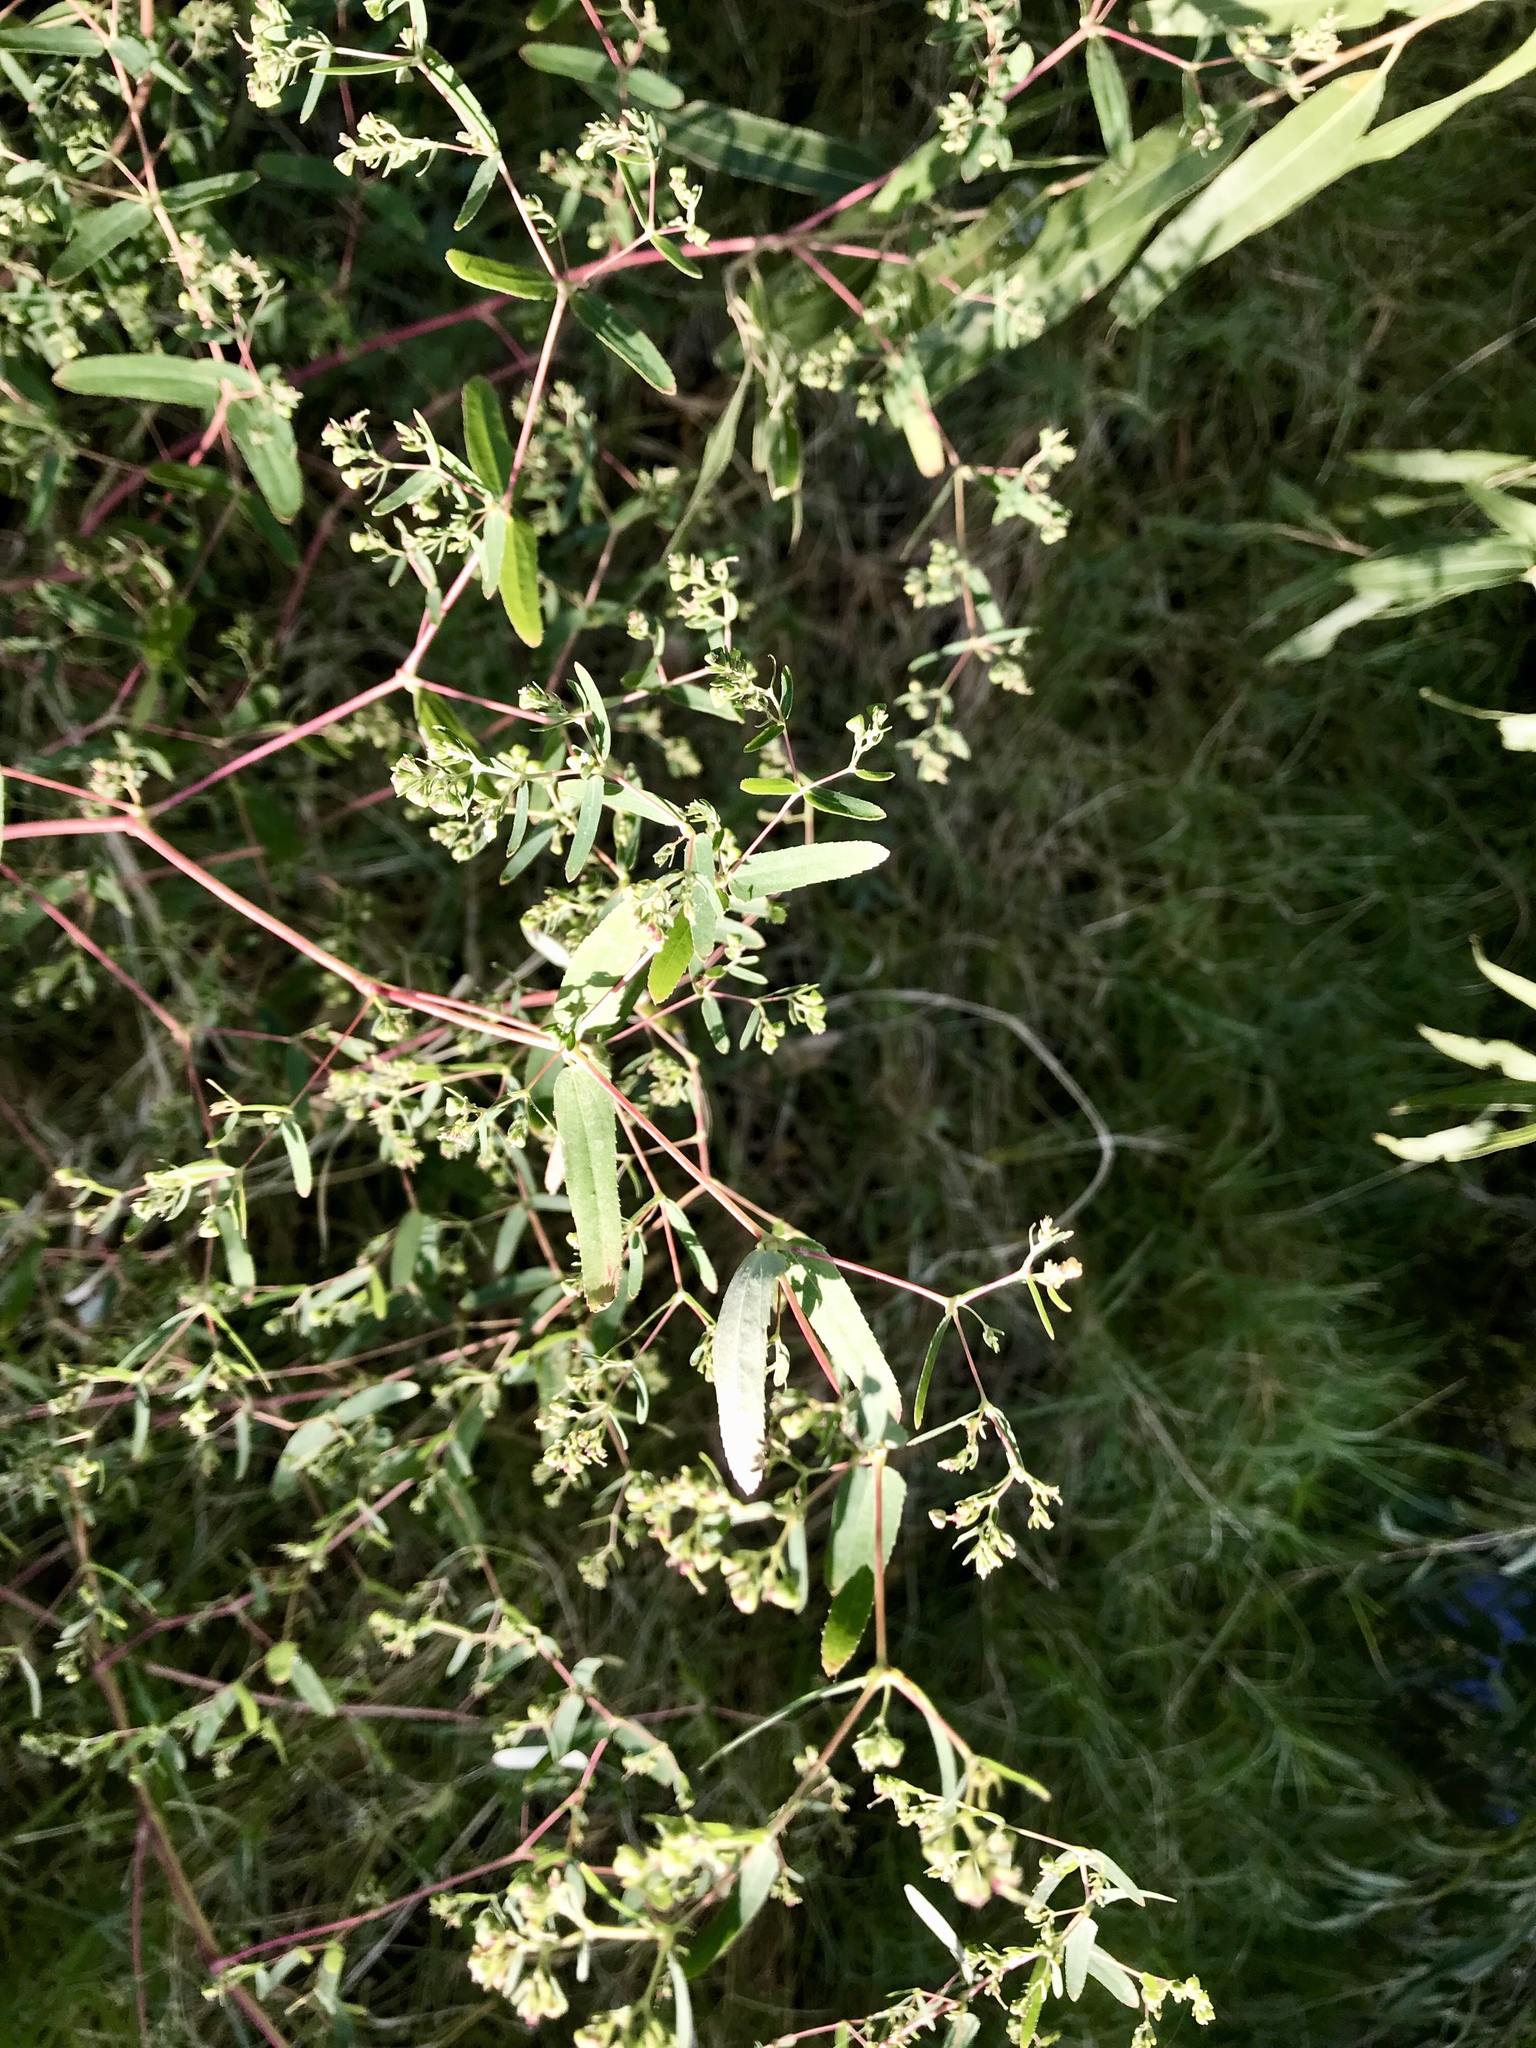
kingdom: Plantae
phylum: Tracheophyta
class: Magnoliopsida
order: Malpighiales
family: Euphorbiaceae
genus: Euphorbia
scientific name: Euphorbia hyssopifolia
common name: Hyssopleaf sandmat
